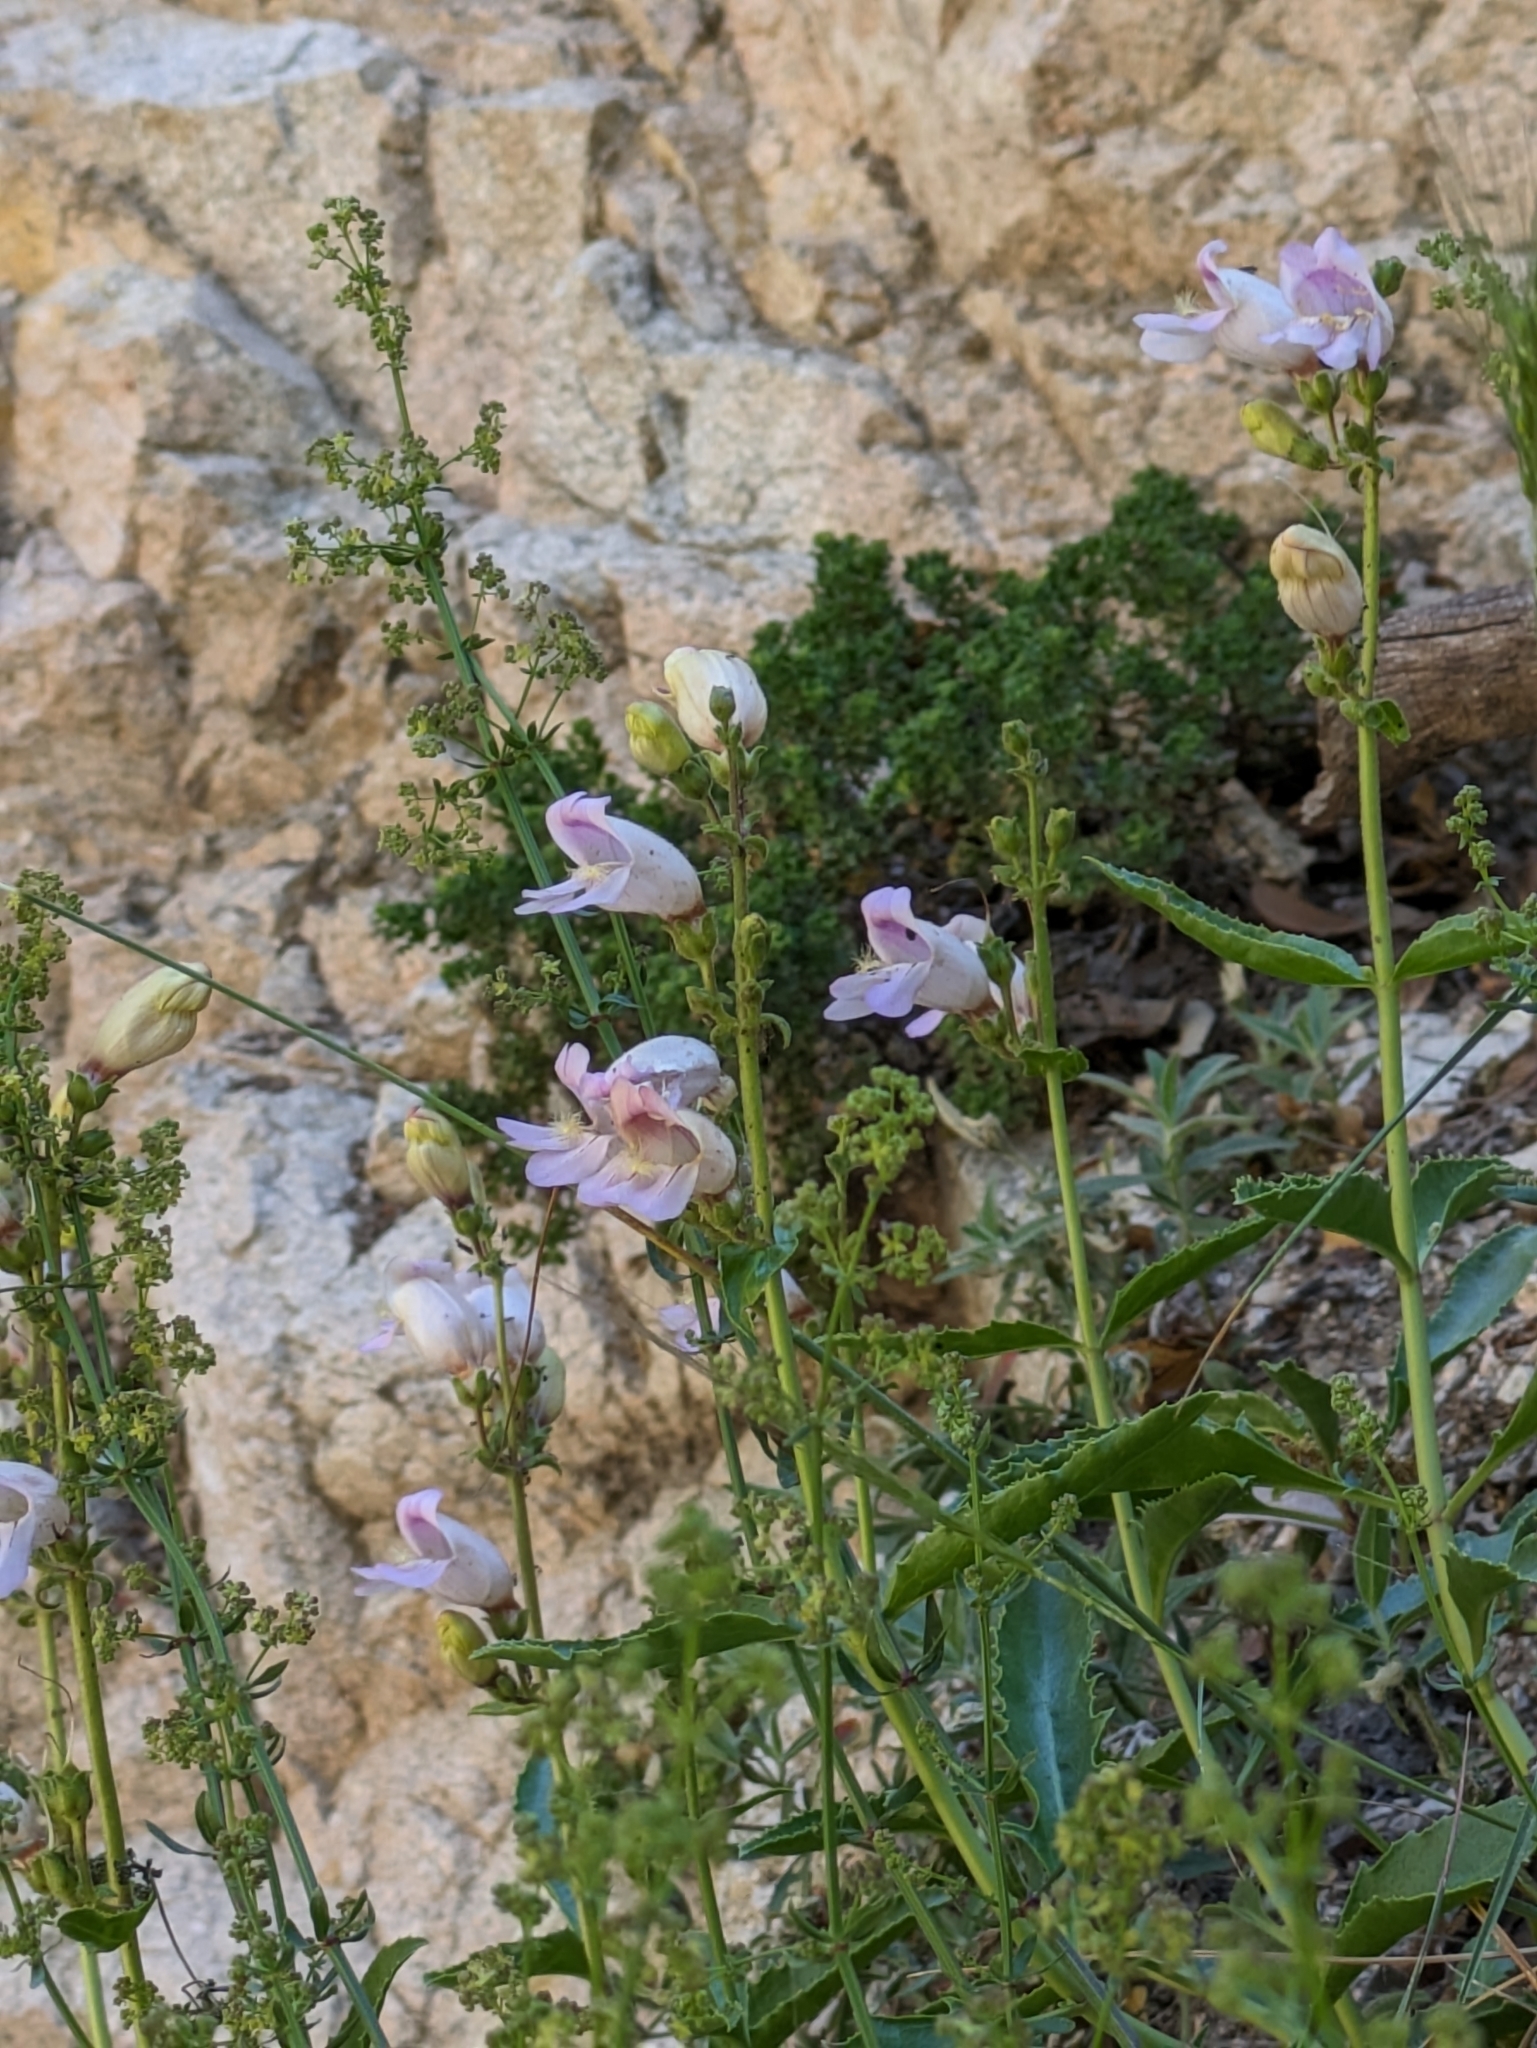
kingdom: Plantae
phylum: Tracheophyta
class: Magnoliopsida
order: Lamiales
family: Plantaginaceae
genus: Penstemon
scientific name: Penstemon grinnellii
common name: Grinnell's beardtongue
